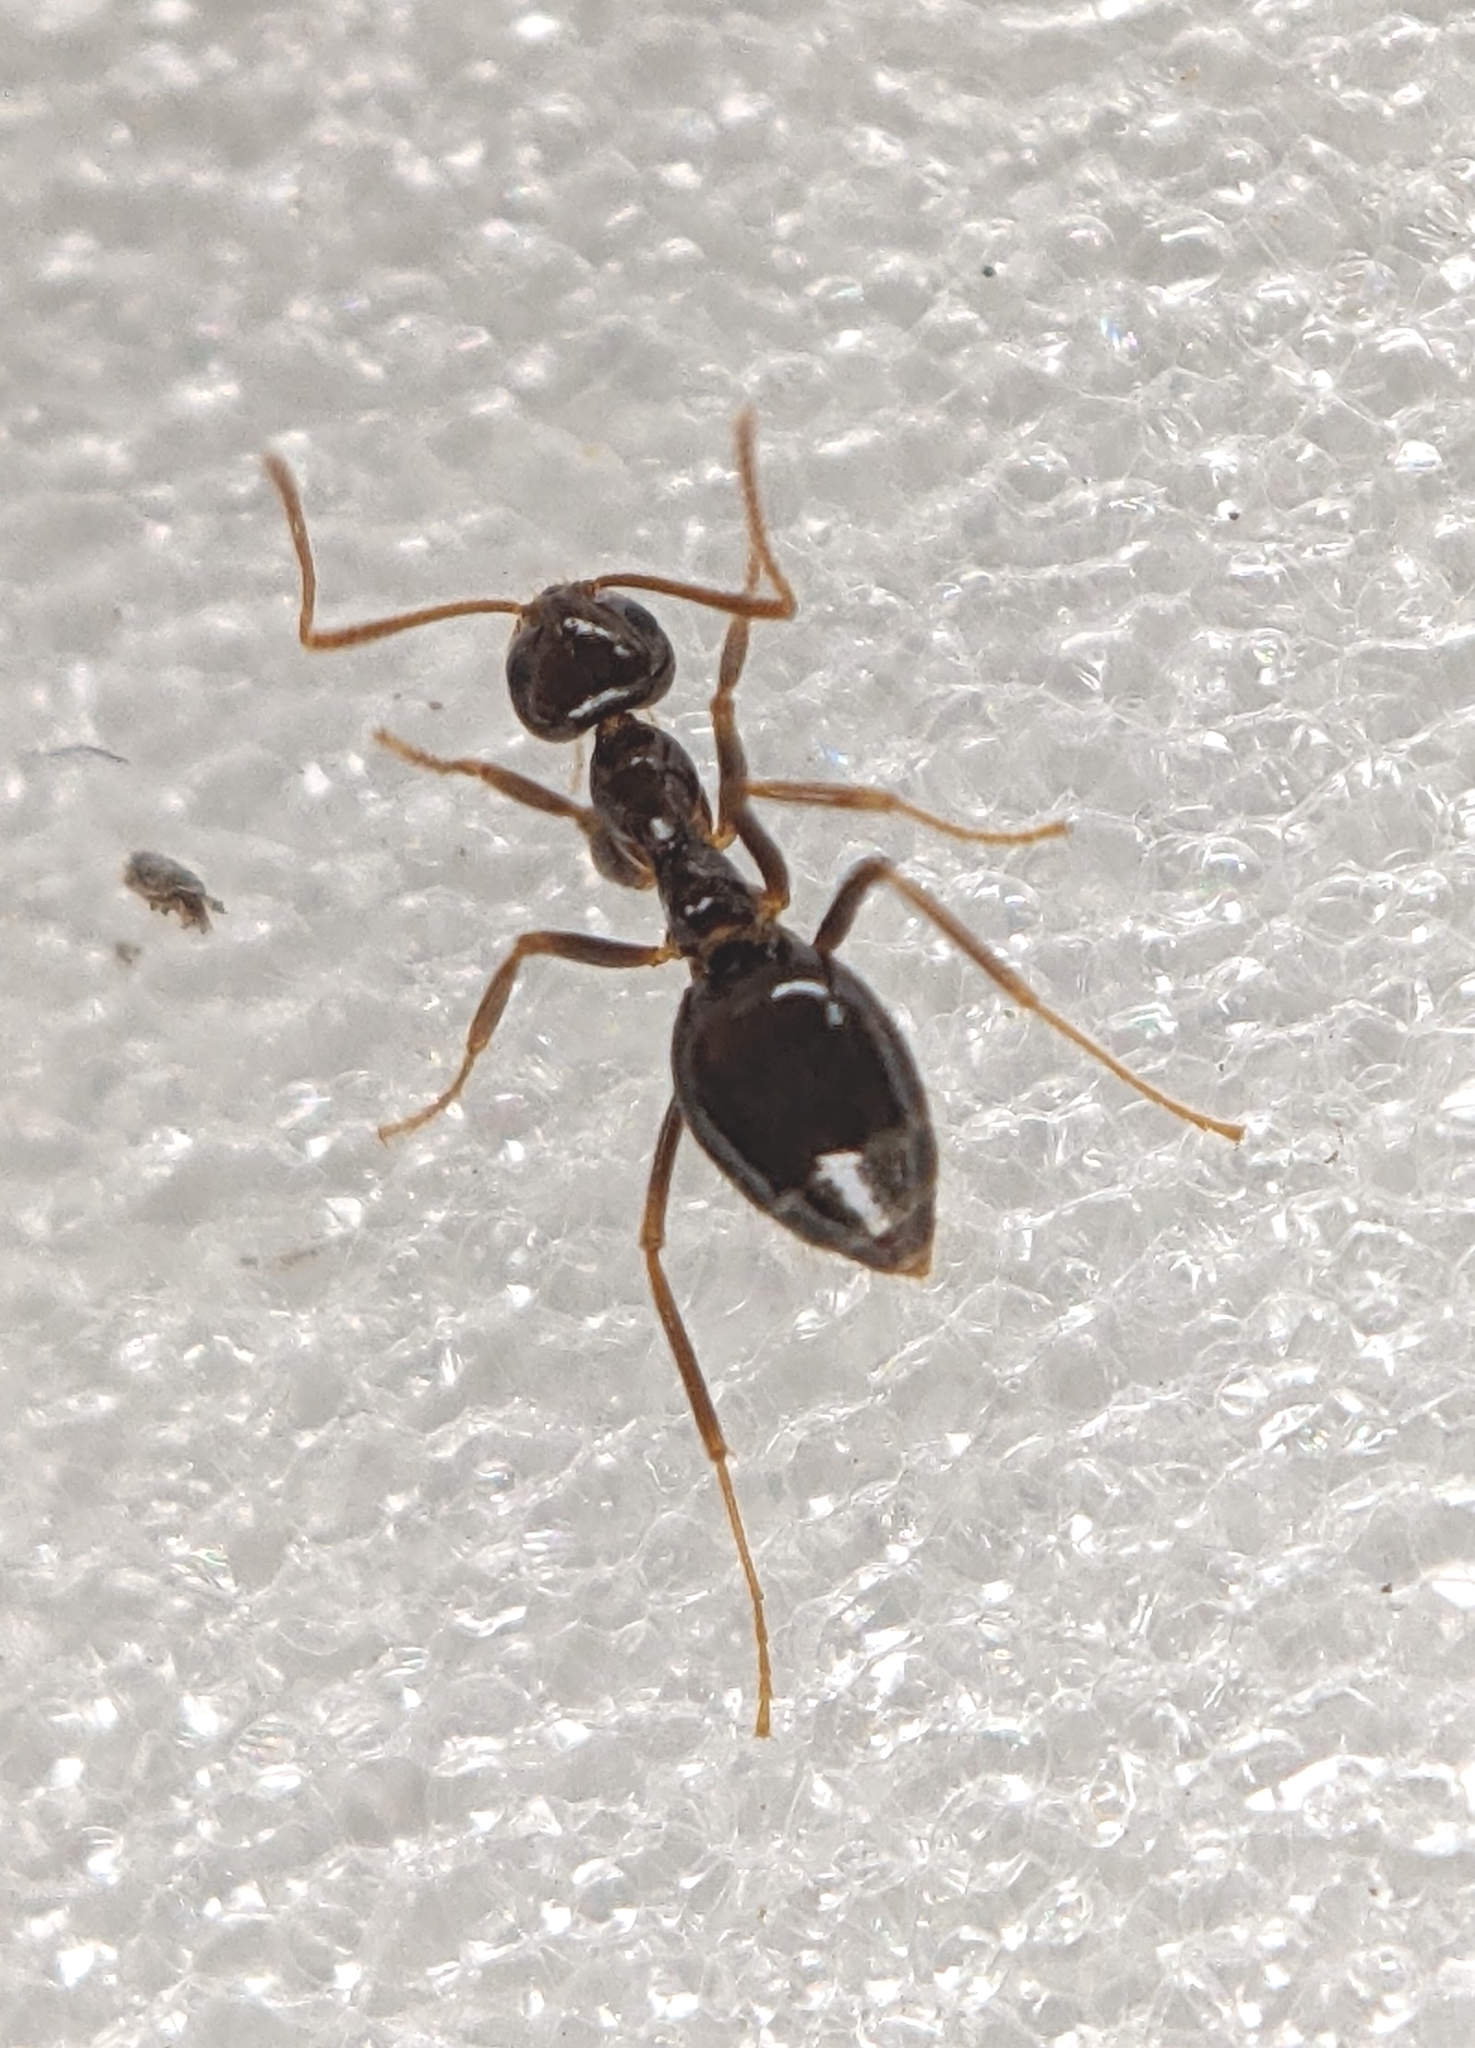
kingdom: Animalia
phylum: Arthropoda
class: Insecta
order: Hymenoptera
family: Formicidae
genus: Prenolepis
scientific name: Prenolepis imparis
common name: Small honey ant
